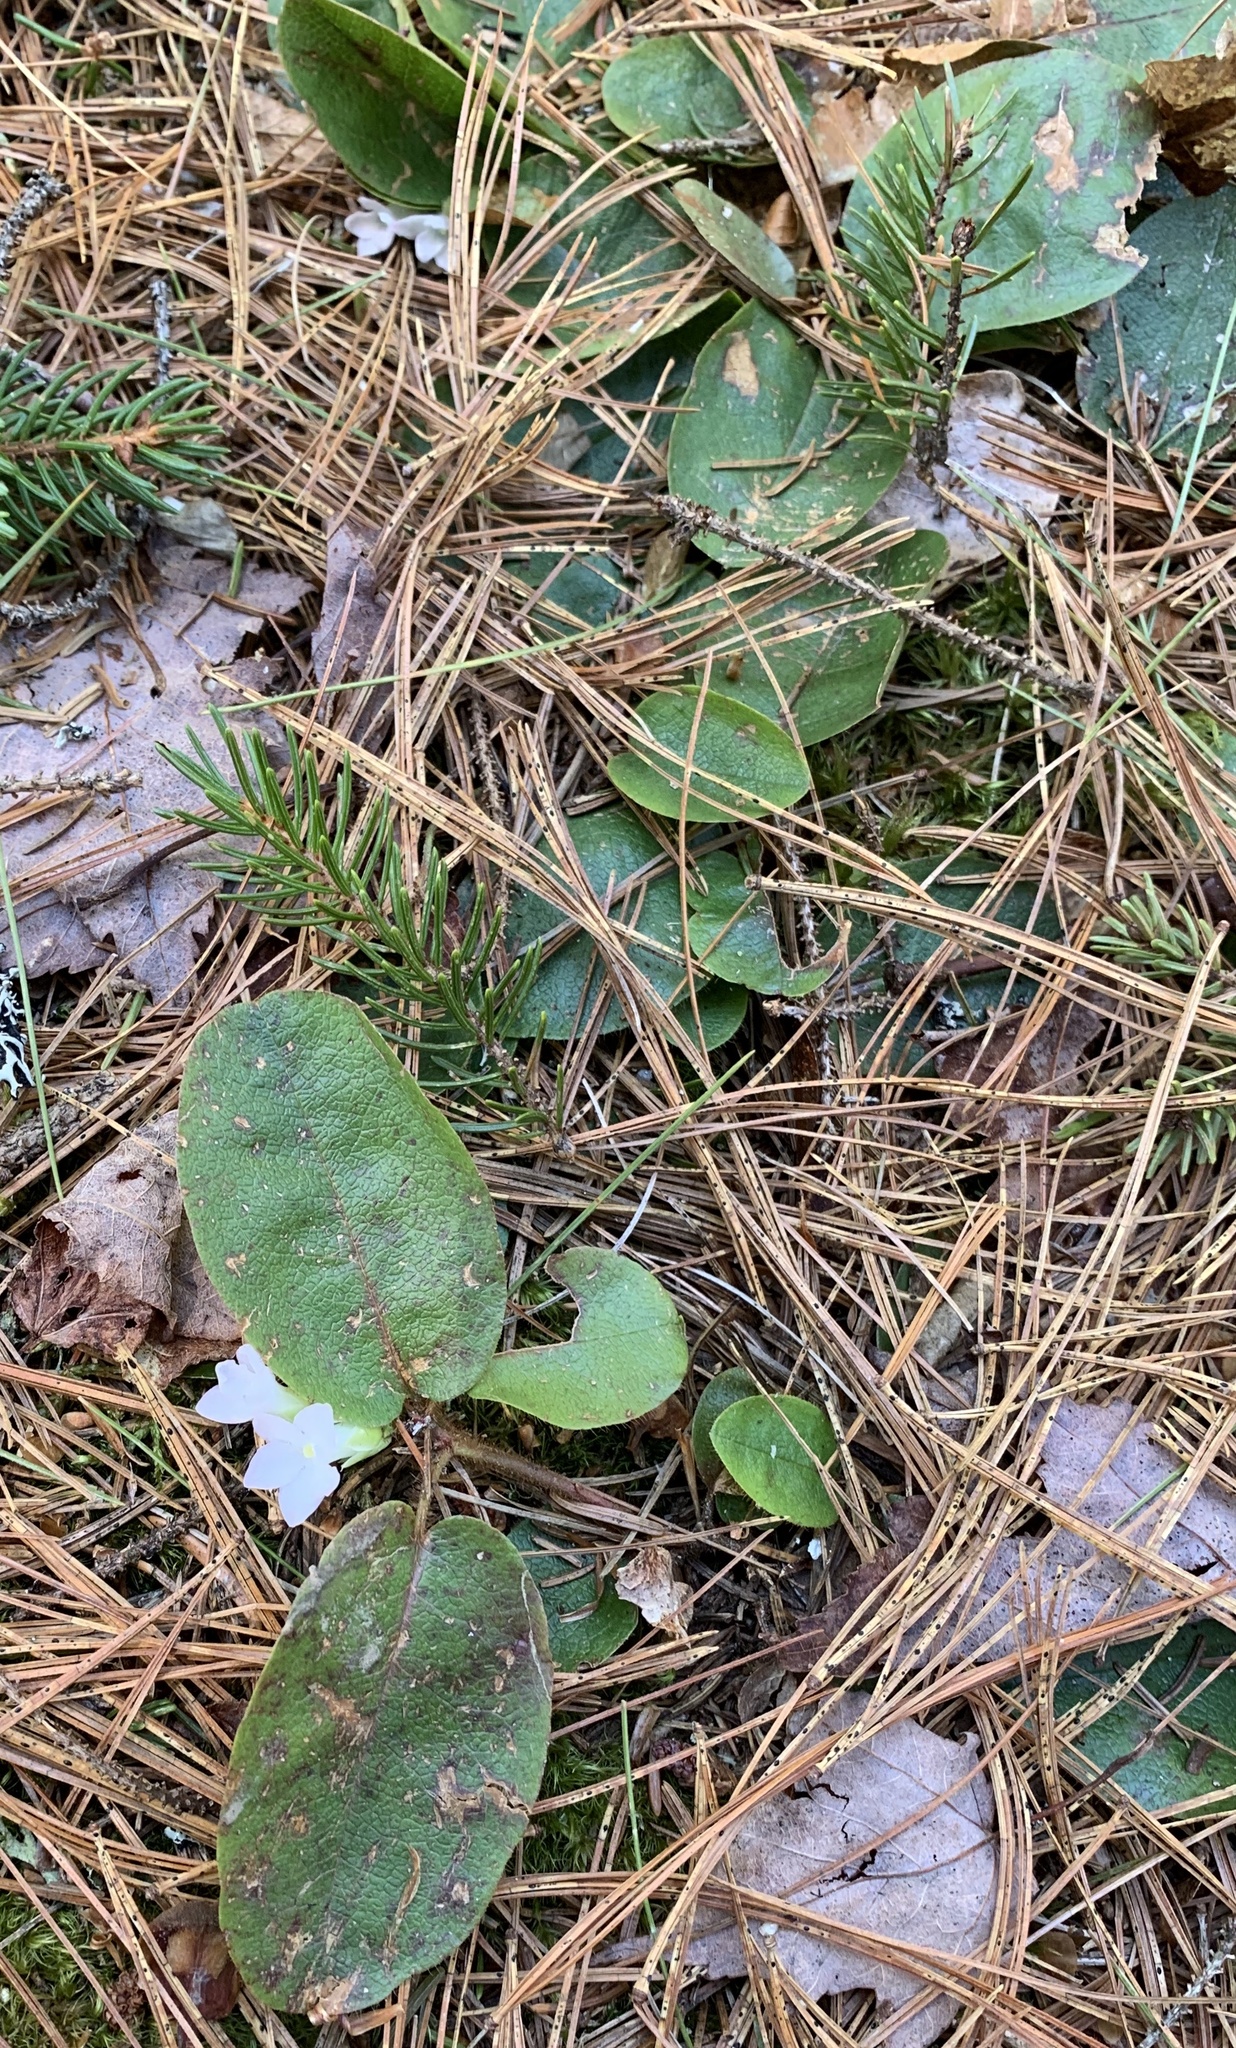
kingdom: Plantae
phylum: Tracheophyta
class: Magnoliopsida
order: Ericales
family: Ericaceae
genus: Epigaea
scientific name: Epigaea repens
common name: Gravelroot
